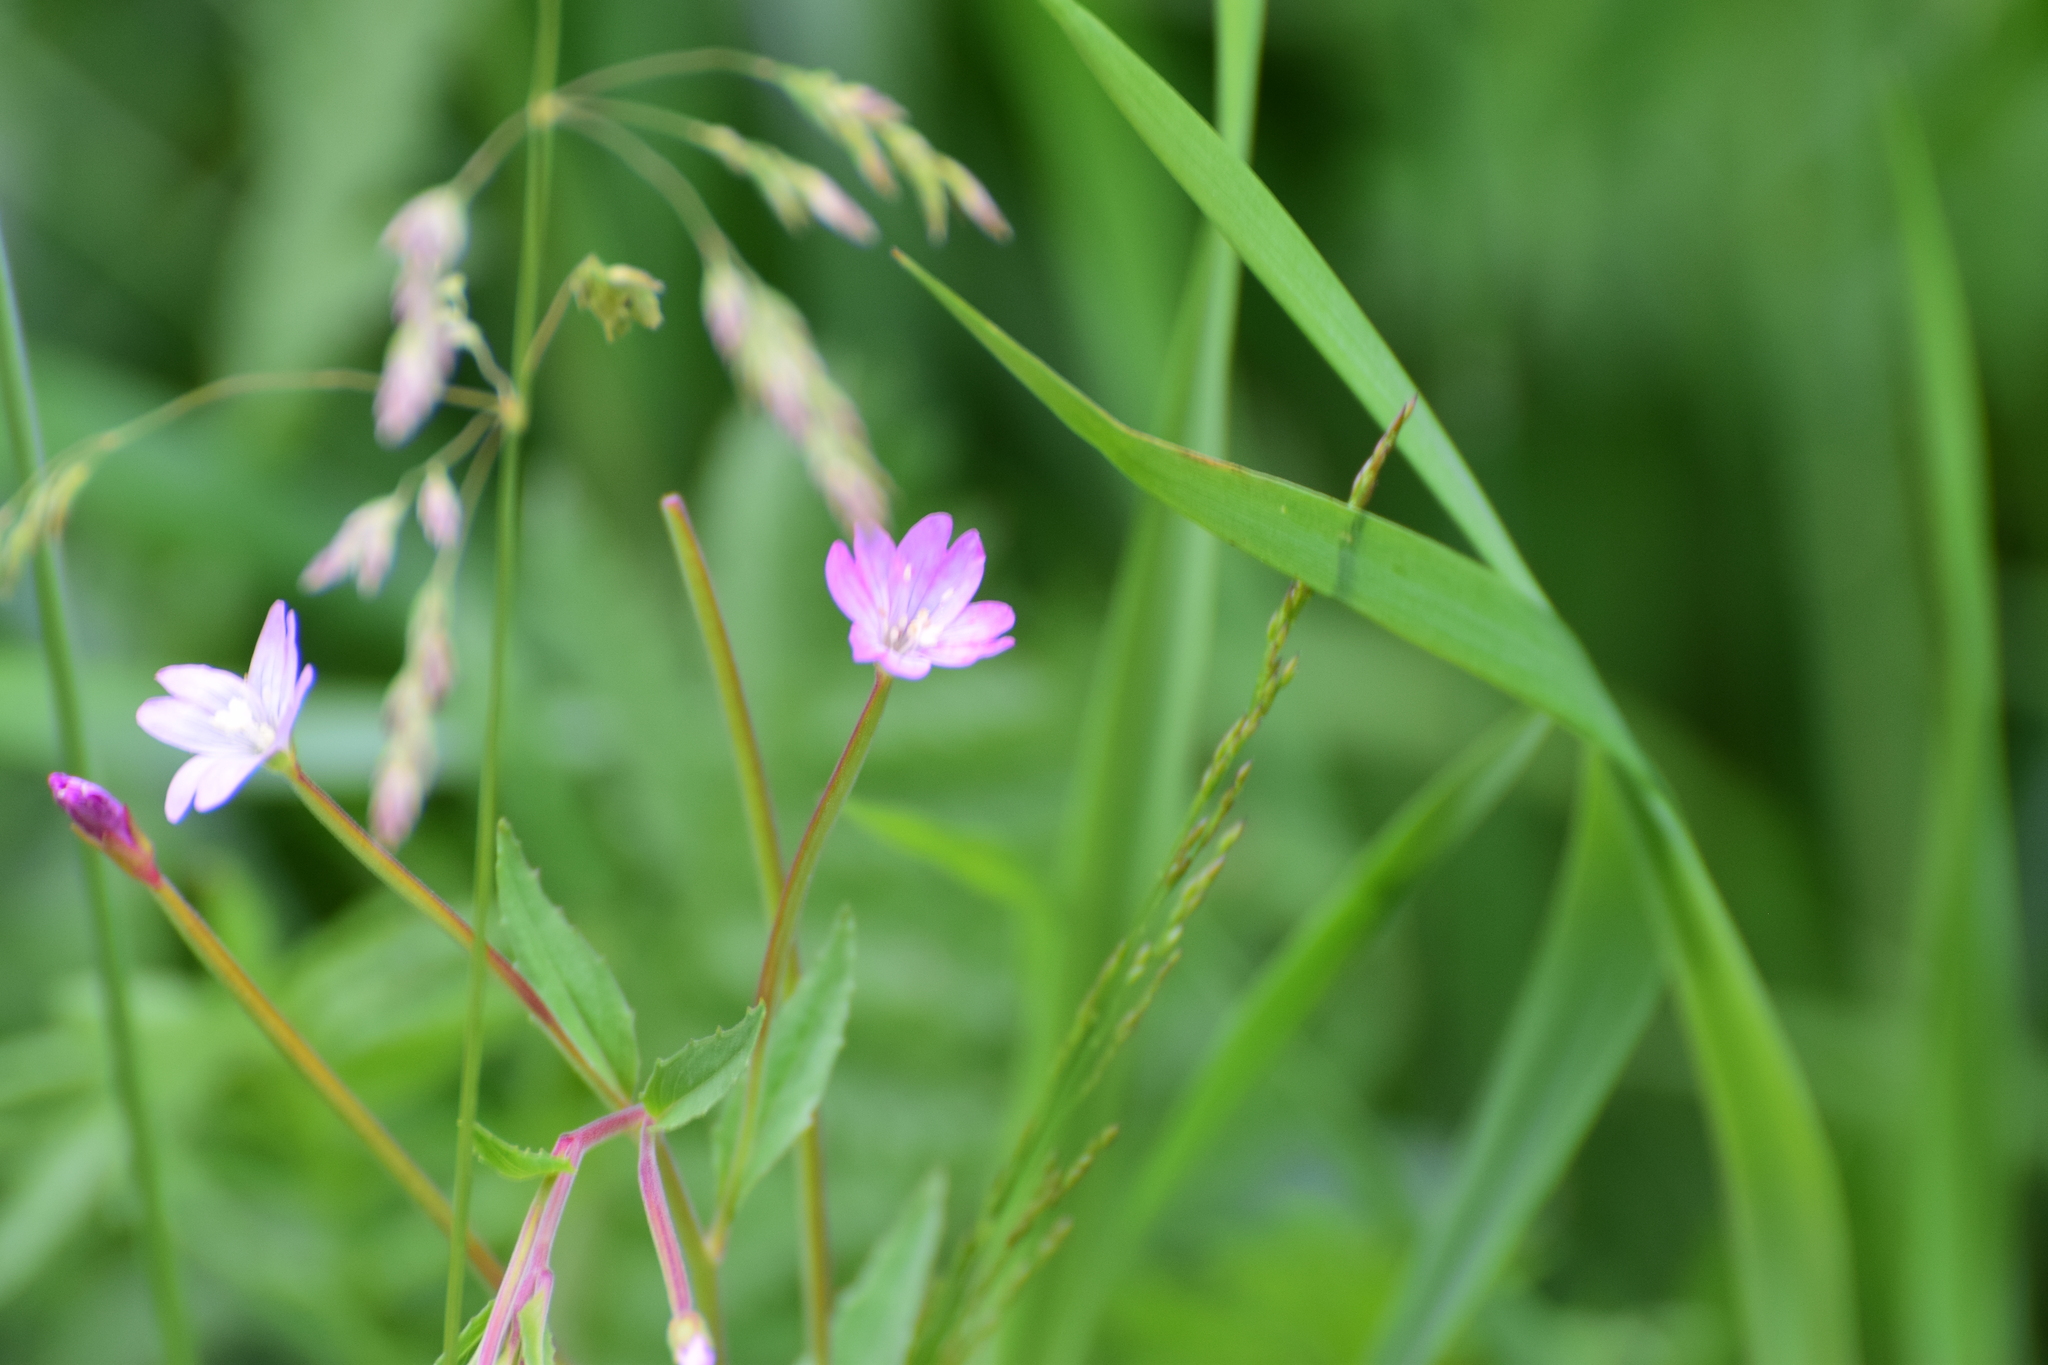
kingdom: Plantae
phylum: Tracheophyta
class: Magnoliopsida
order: Myrtales
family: Onagraceae
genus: Epilobium
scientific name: Epilobium montanum
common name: Broad-leaved willowherb
